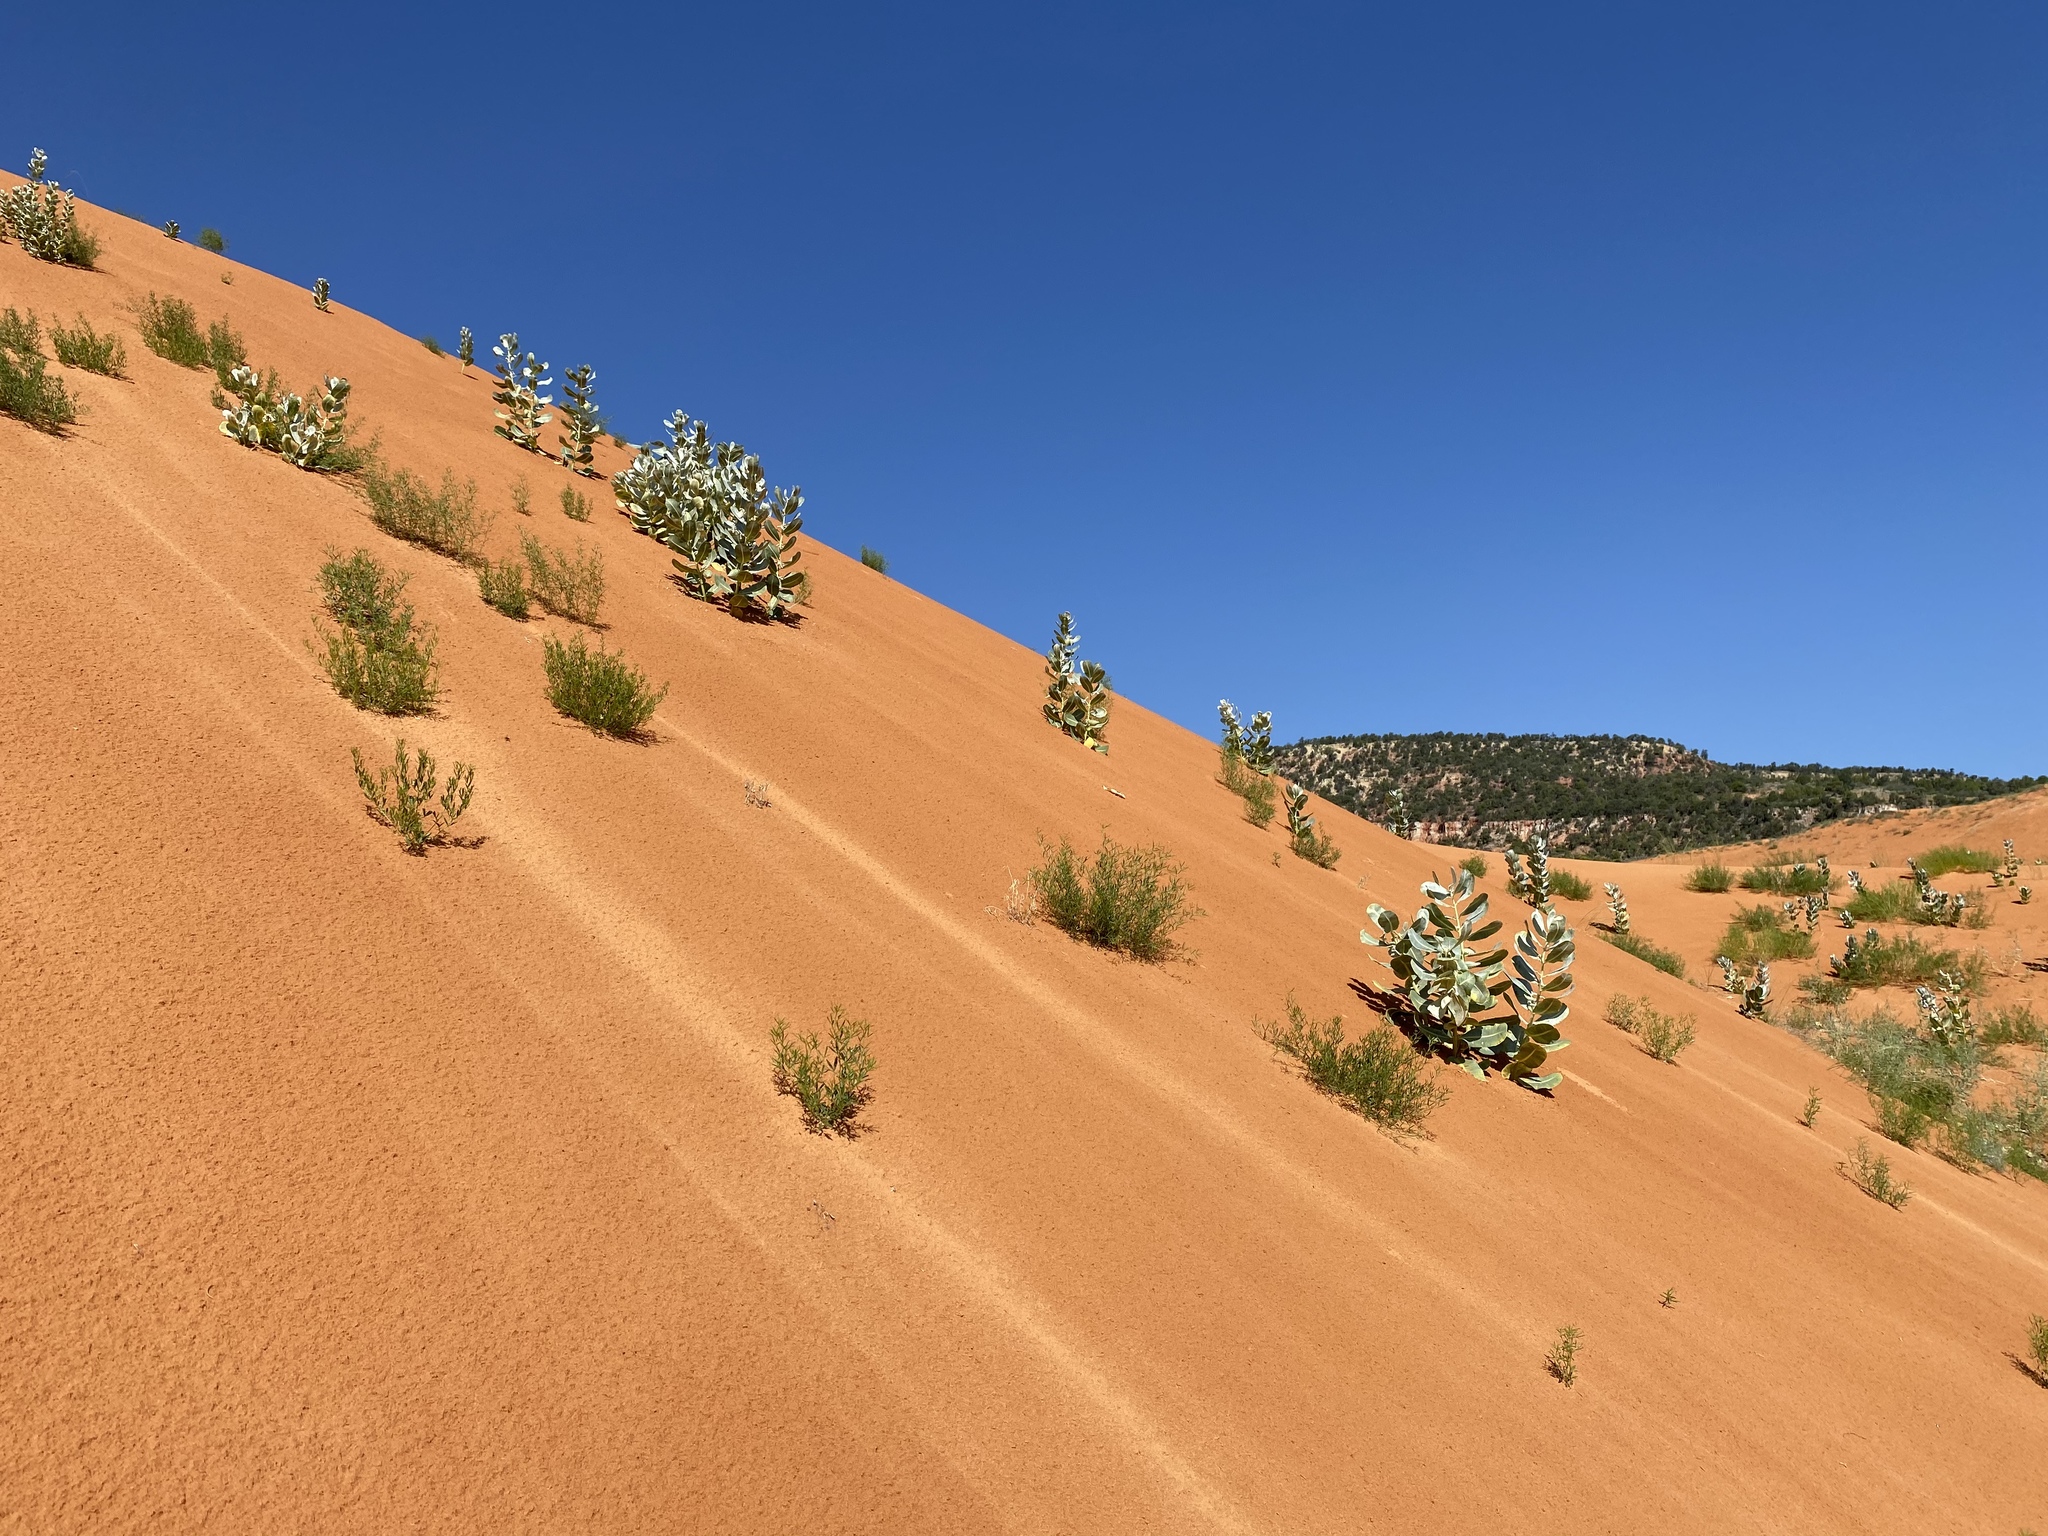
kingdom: Plantae
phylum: Tracheophyta
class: Magnoliopsida
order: Gentianales
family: Apocynaceae
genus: Asclepias
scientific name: Asclepias welshii
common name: Welsch's milkweed
